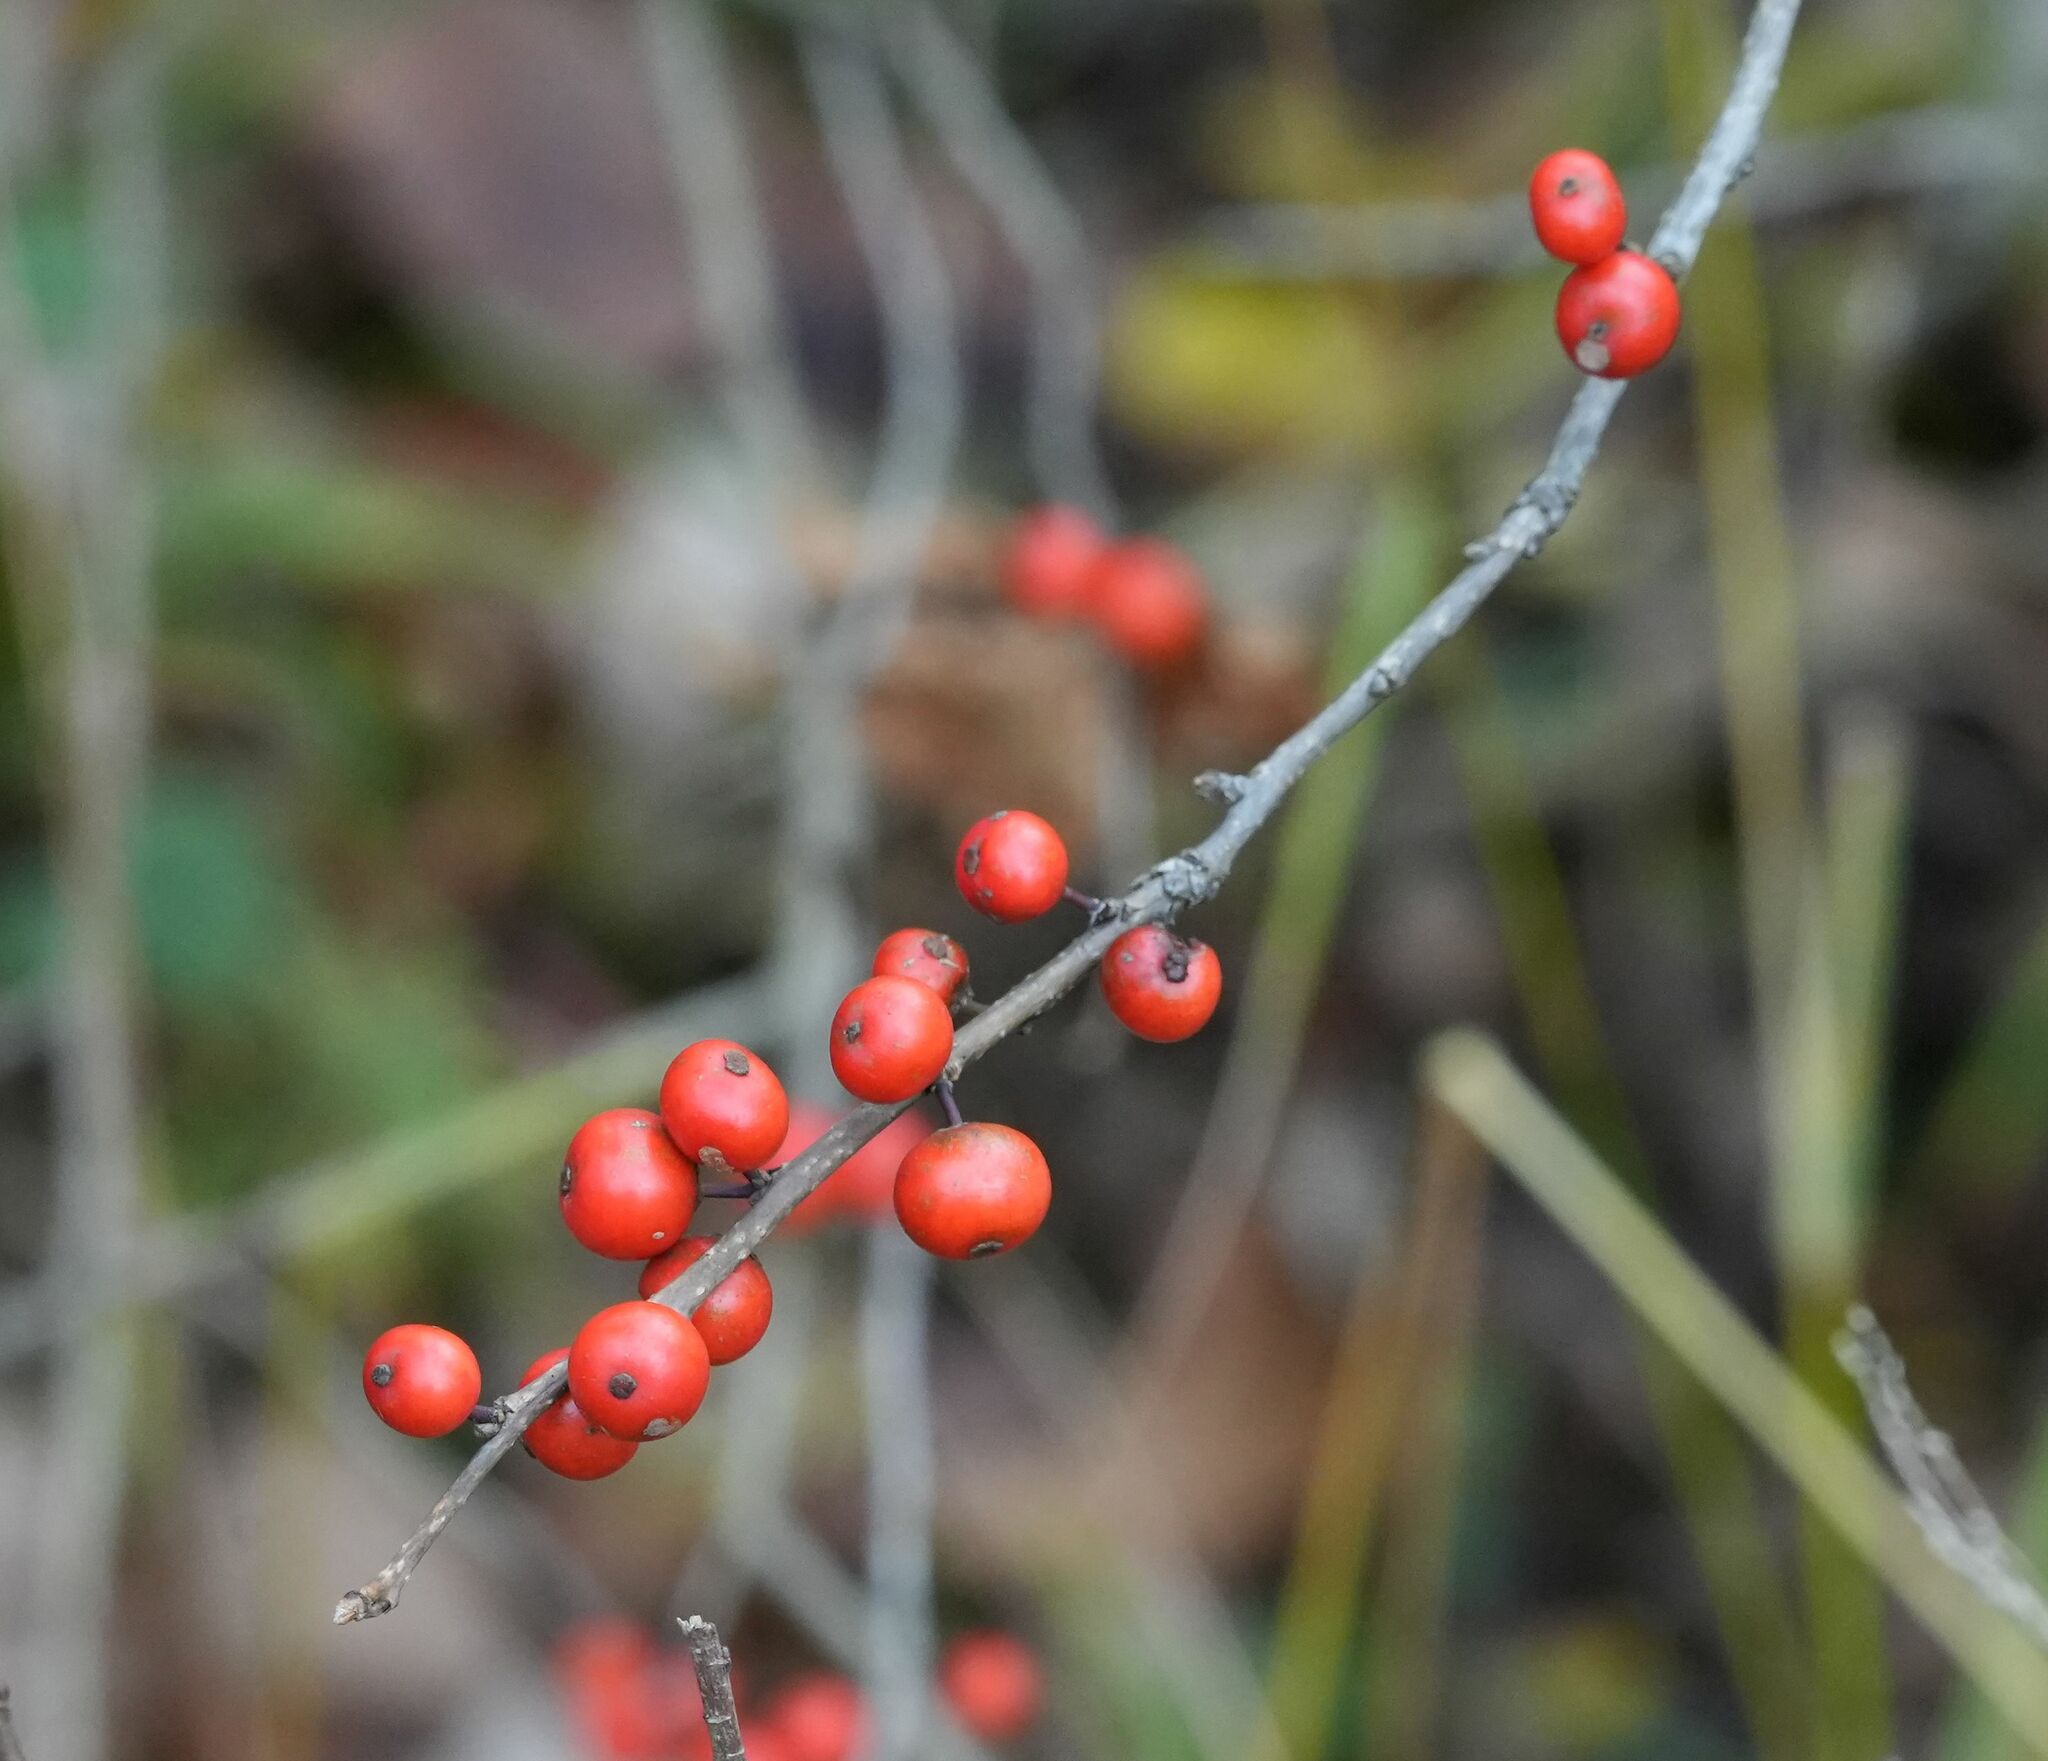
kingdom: Plantae
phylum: Tracheophyta
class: Magnoliopsida
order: Aquifoliales
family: Aquifoliaceae
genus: Ilex
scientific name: Ilex verticillata
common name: Virginia winterberry
